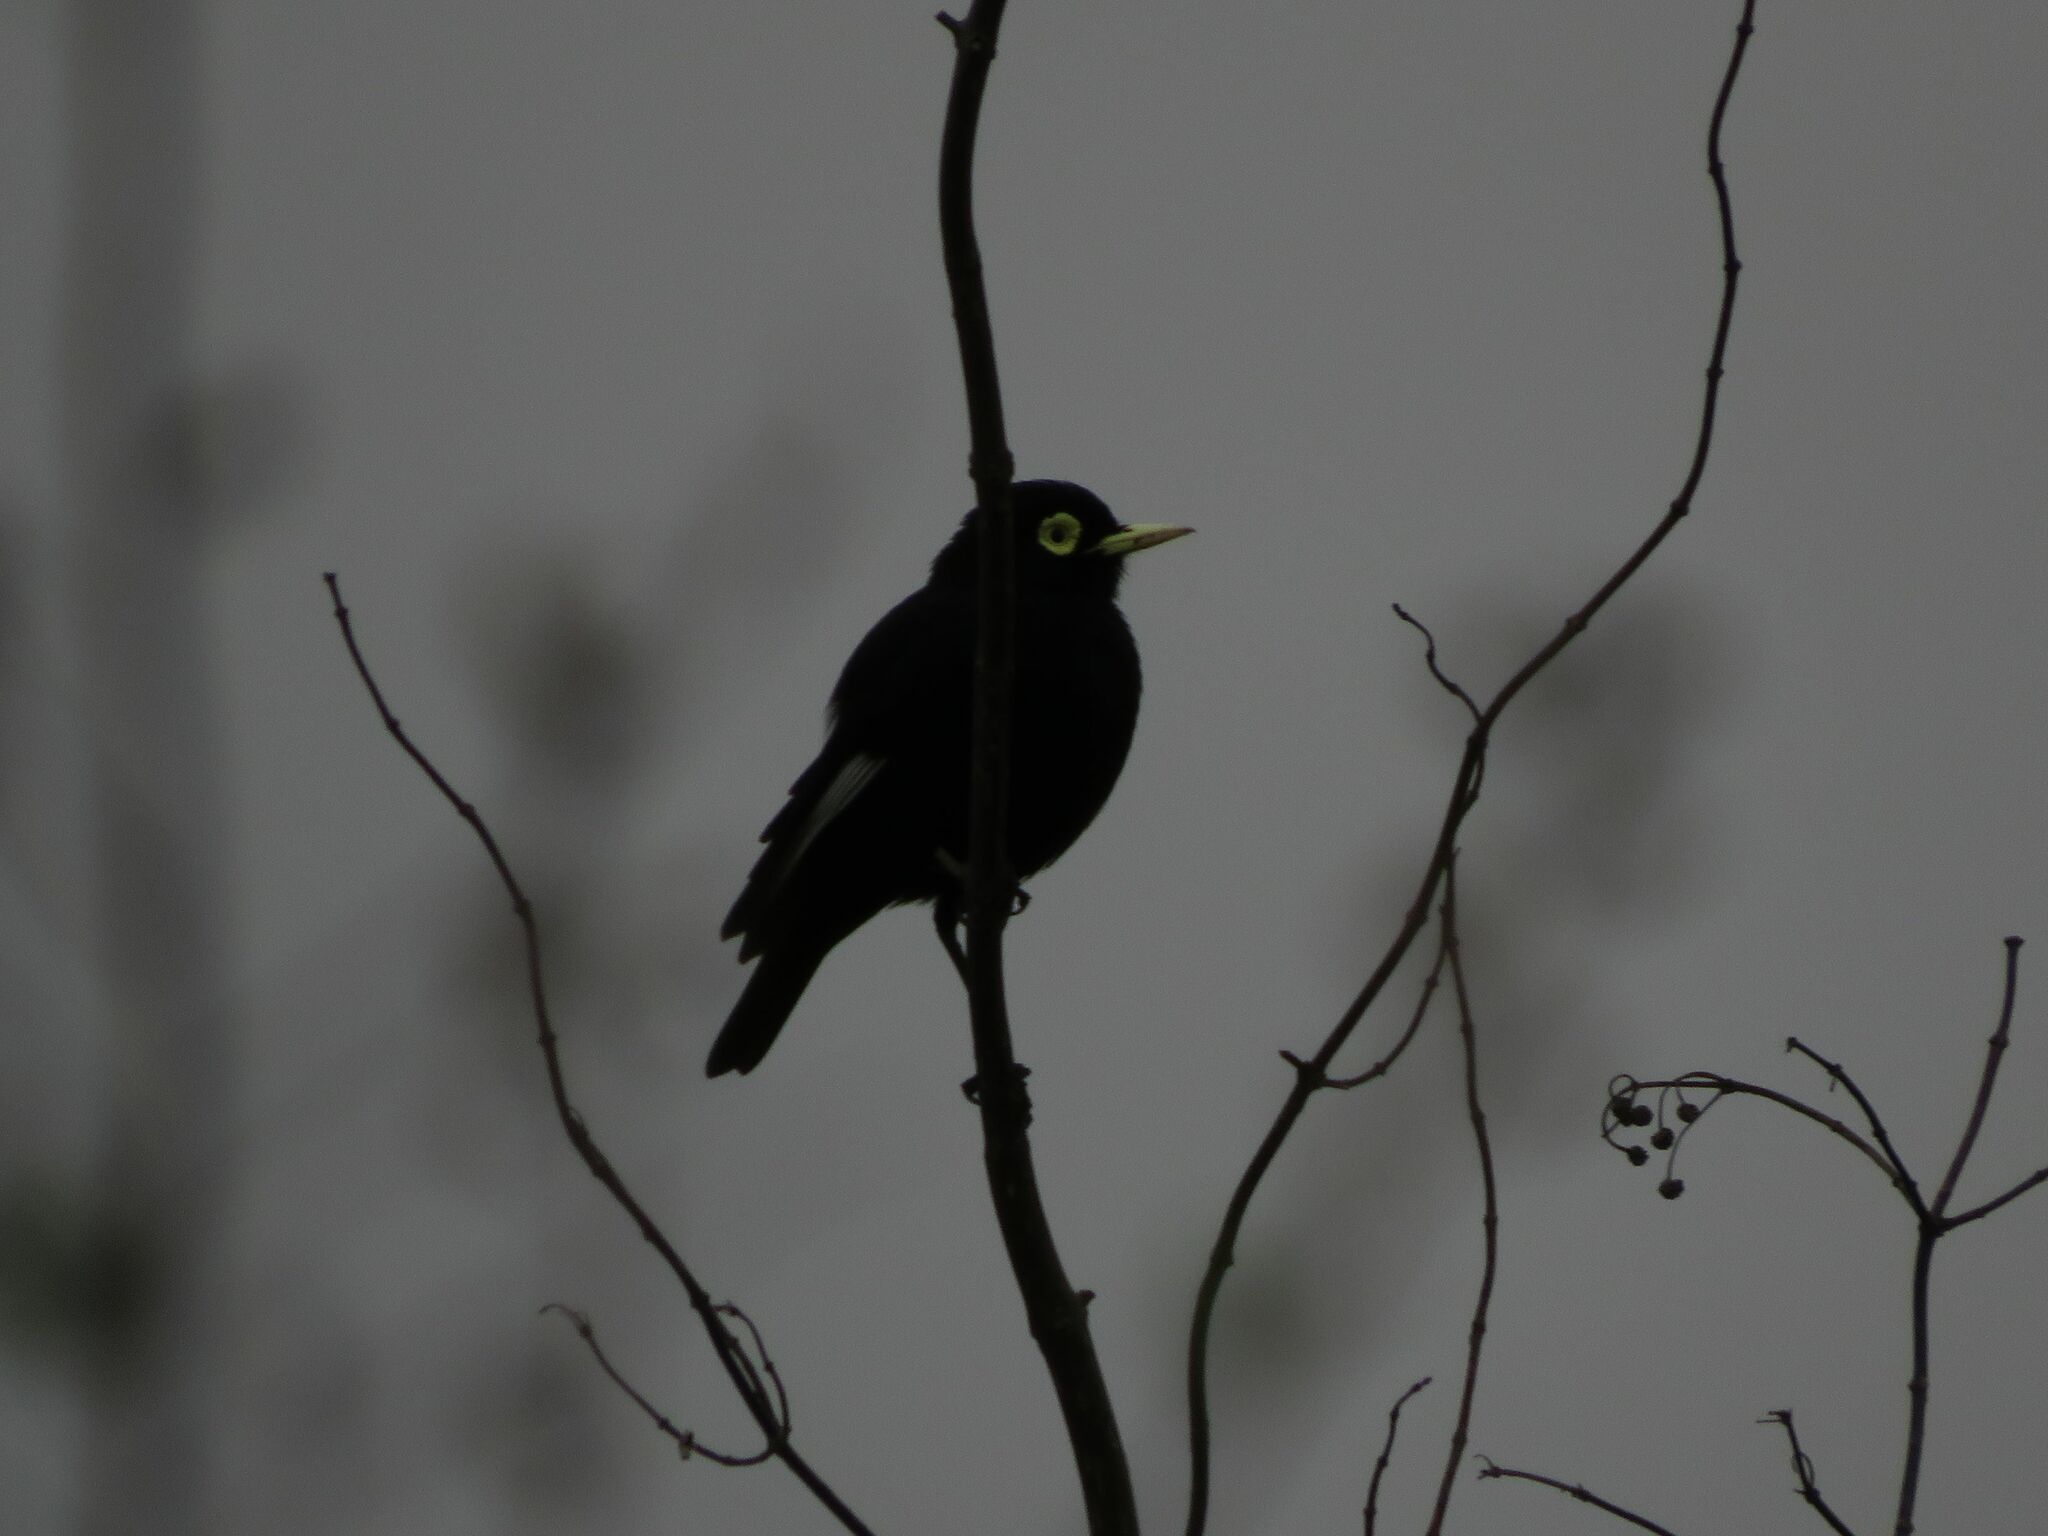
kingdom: Animalia
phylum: Chordata
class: Aves
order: Passeriformes
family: Tyrannidae
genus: Hymenops
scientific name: Hymenops perspicillatus
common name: Spectacled tyrant
